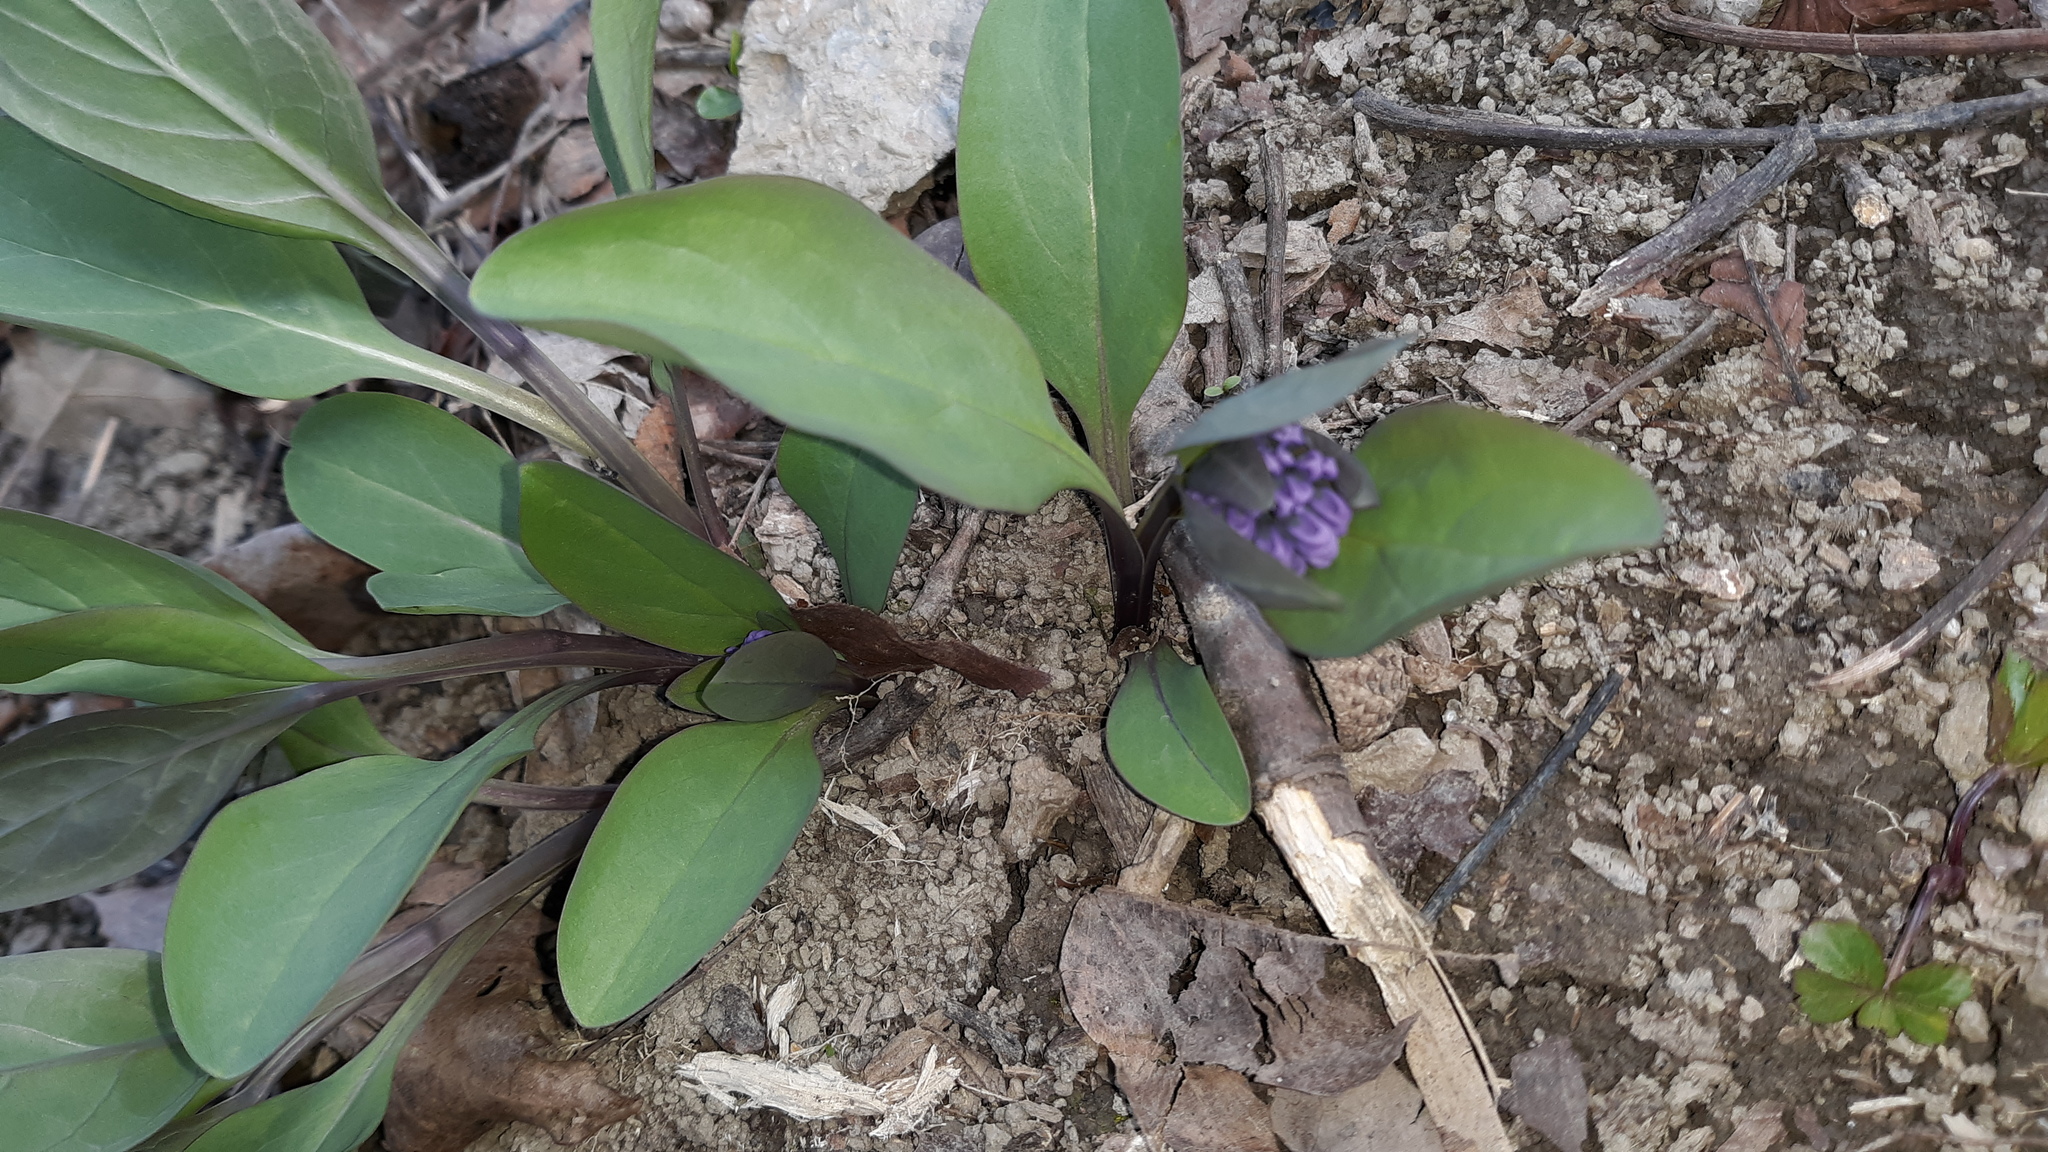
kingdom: Plantae
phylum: Tracheophyta
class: Magnoliopsida
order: Boraginales
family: Boraginaceae
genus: Mertensia
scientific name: Mertensia virginica
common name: Virginia bluebells
